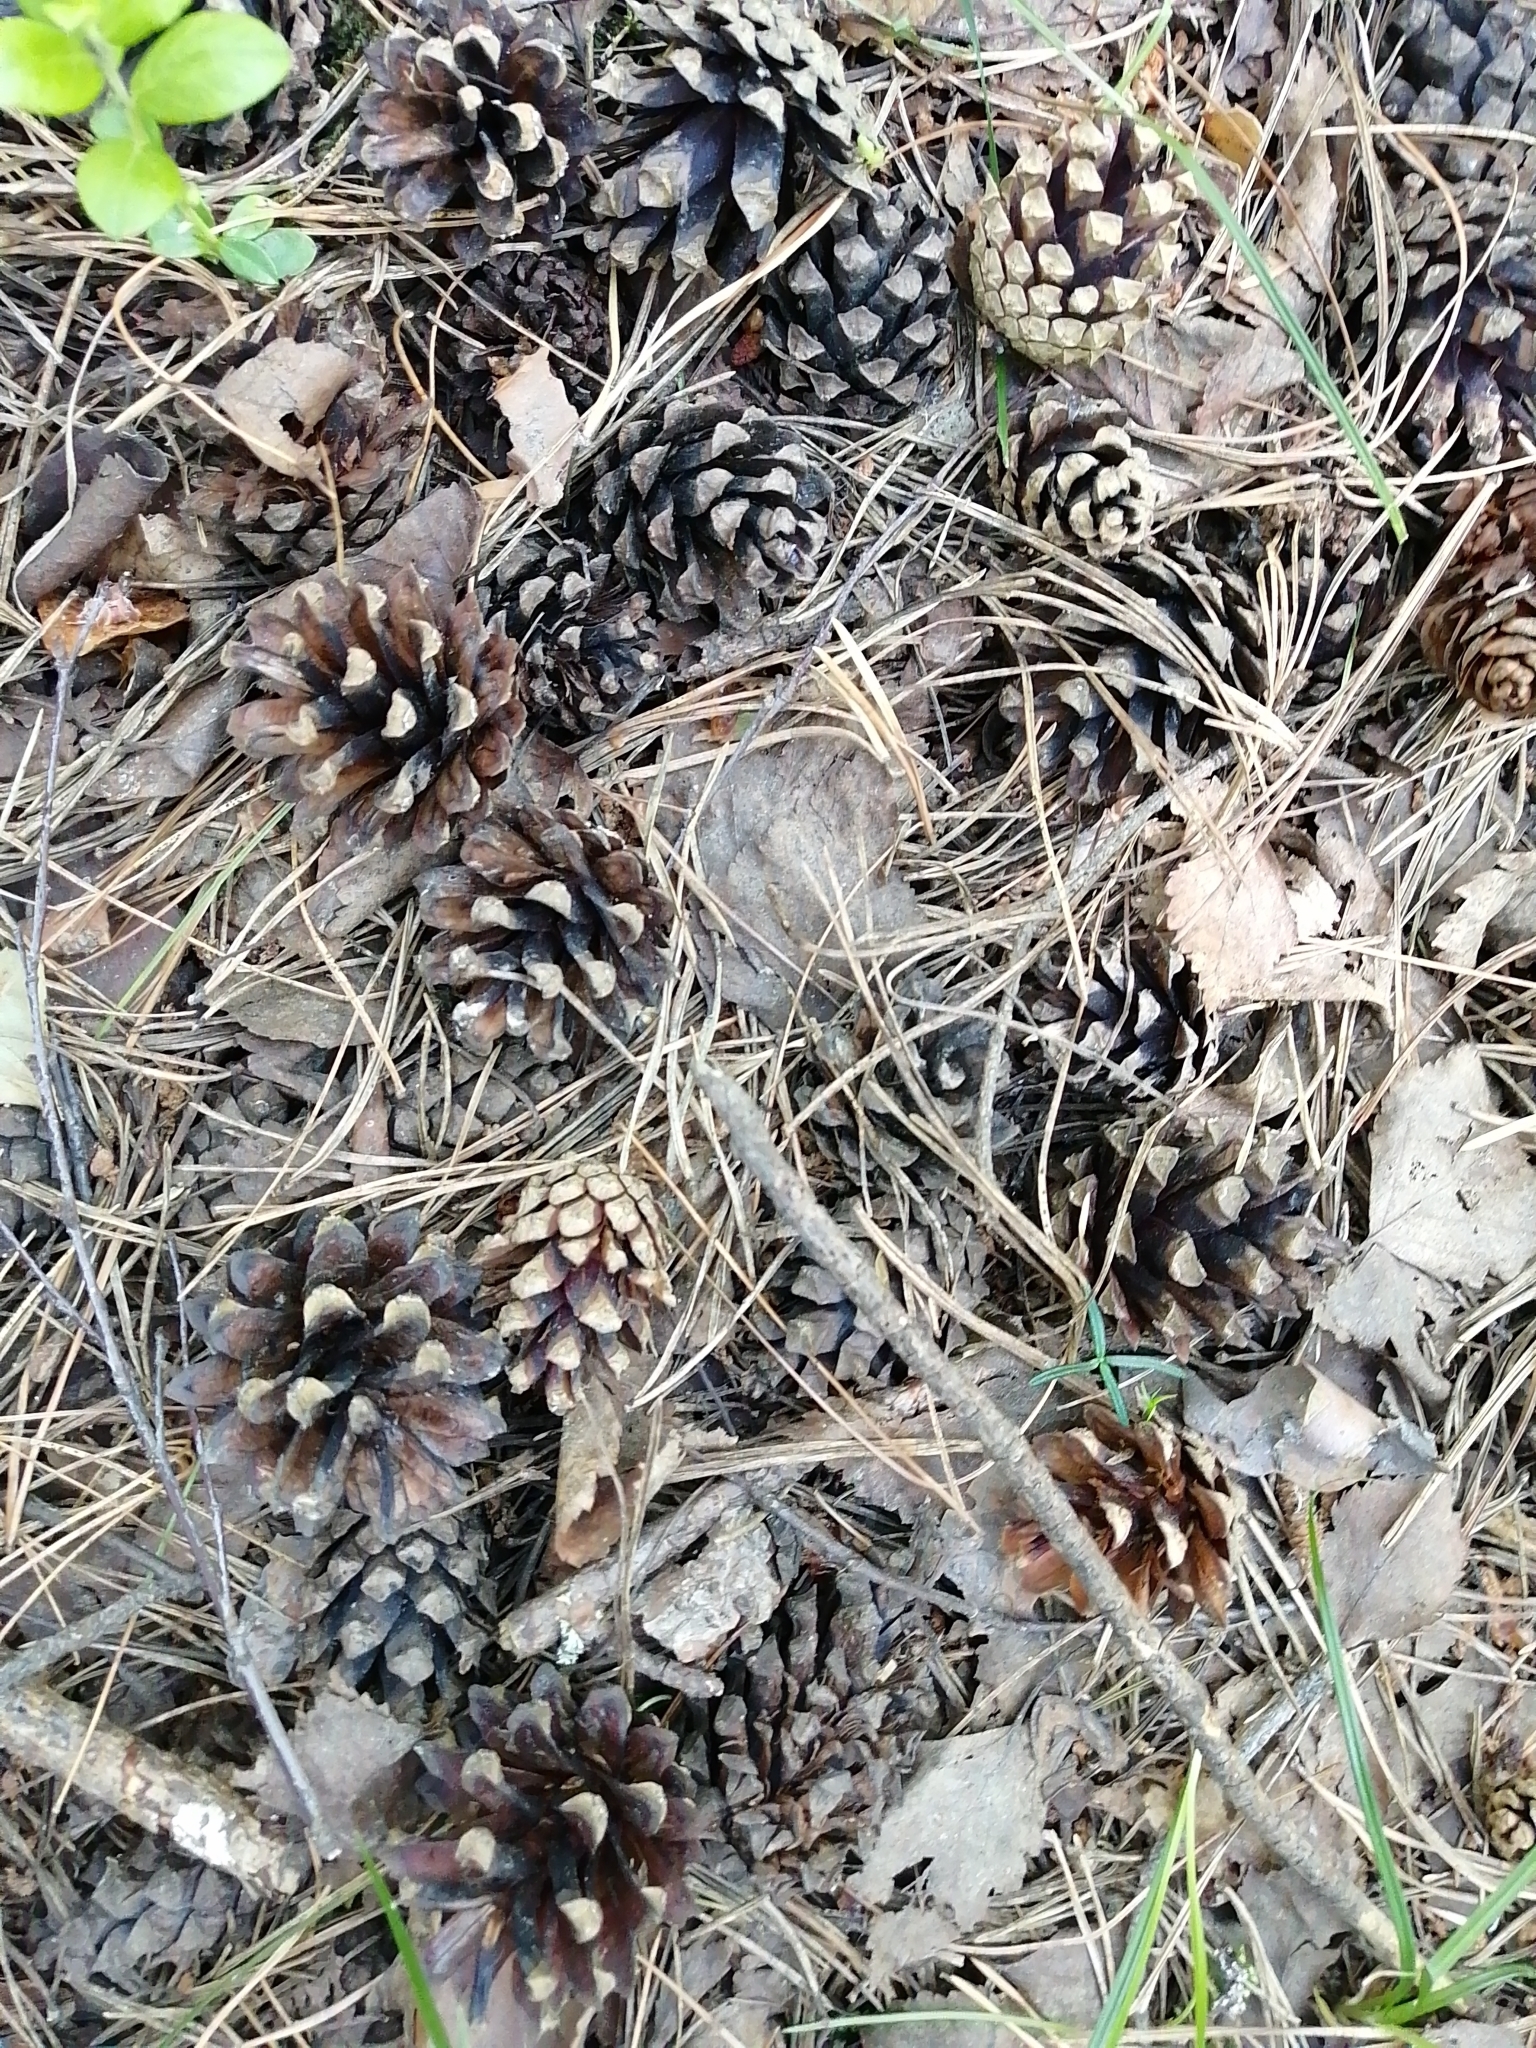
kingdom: Plantae
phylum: Tracheophyta
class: Pinopsida
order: Pinales
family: Pinaceae
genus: Pinus
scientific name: Pinus sylvestris
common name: Scots pine
